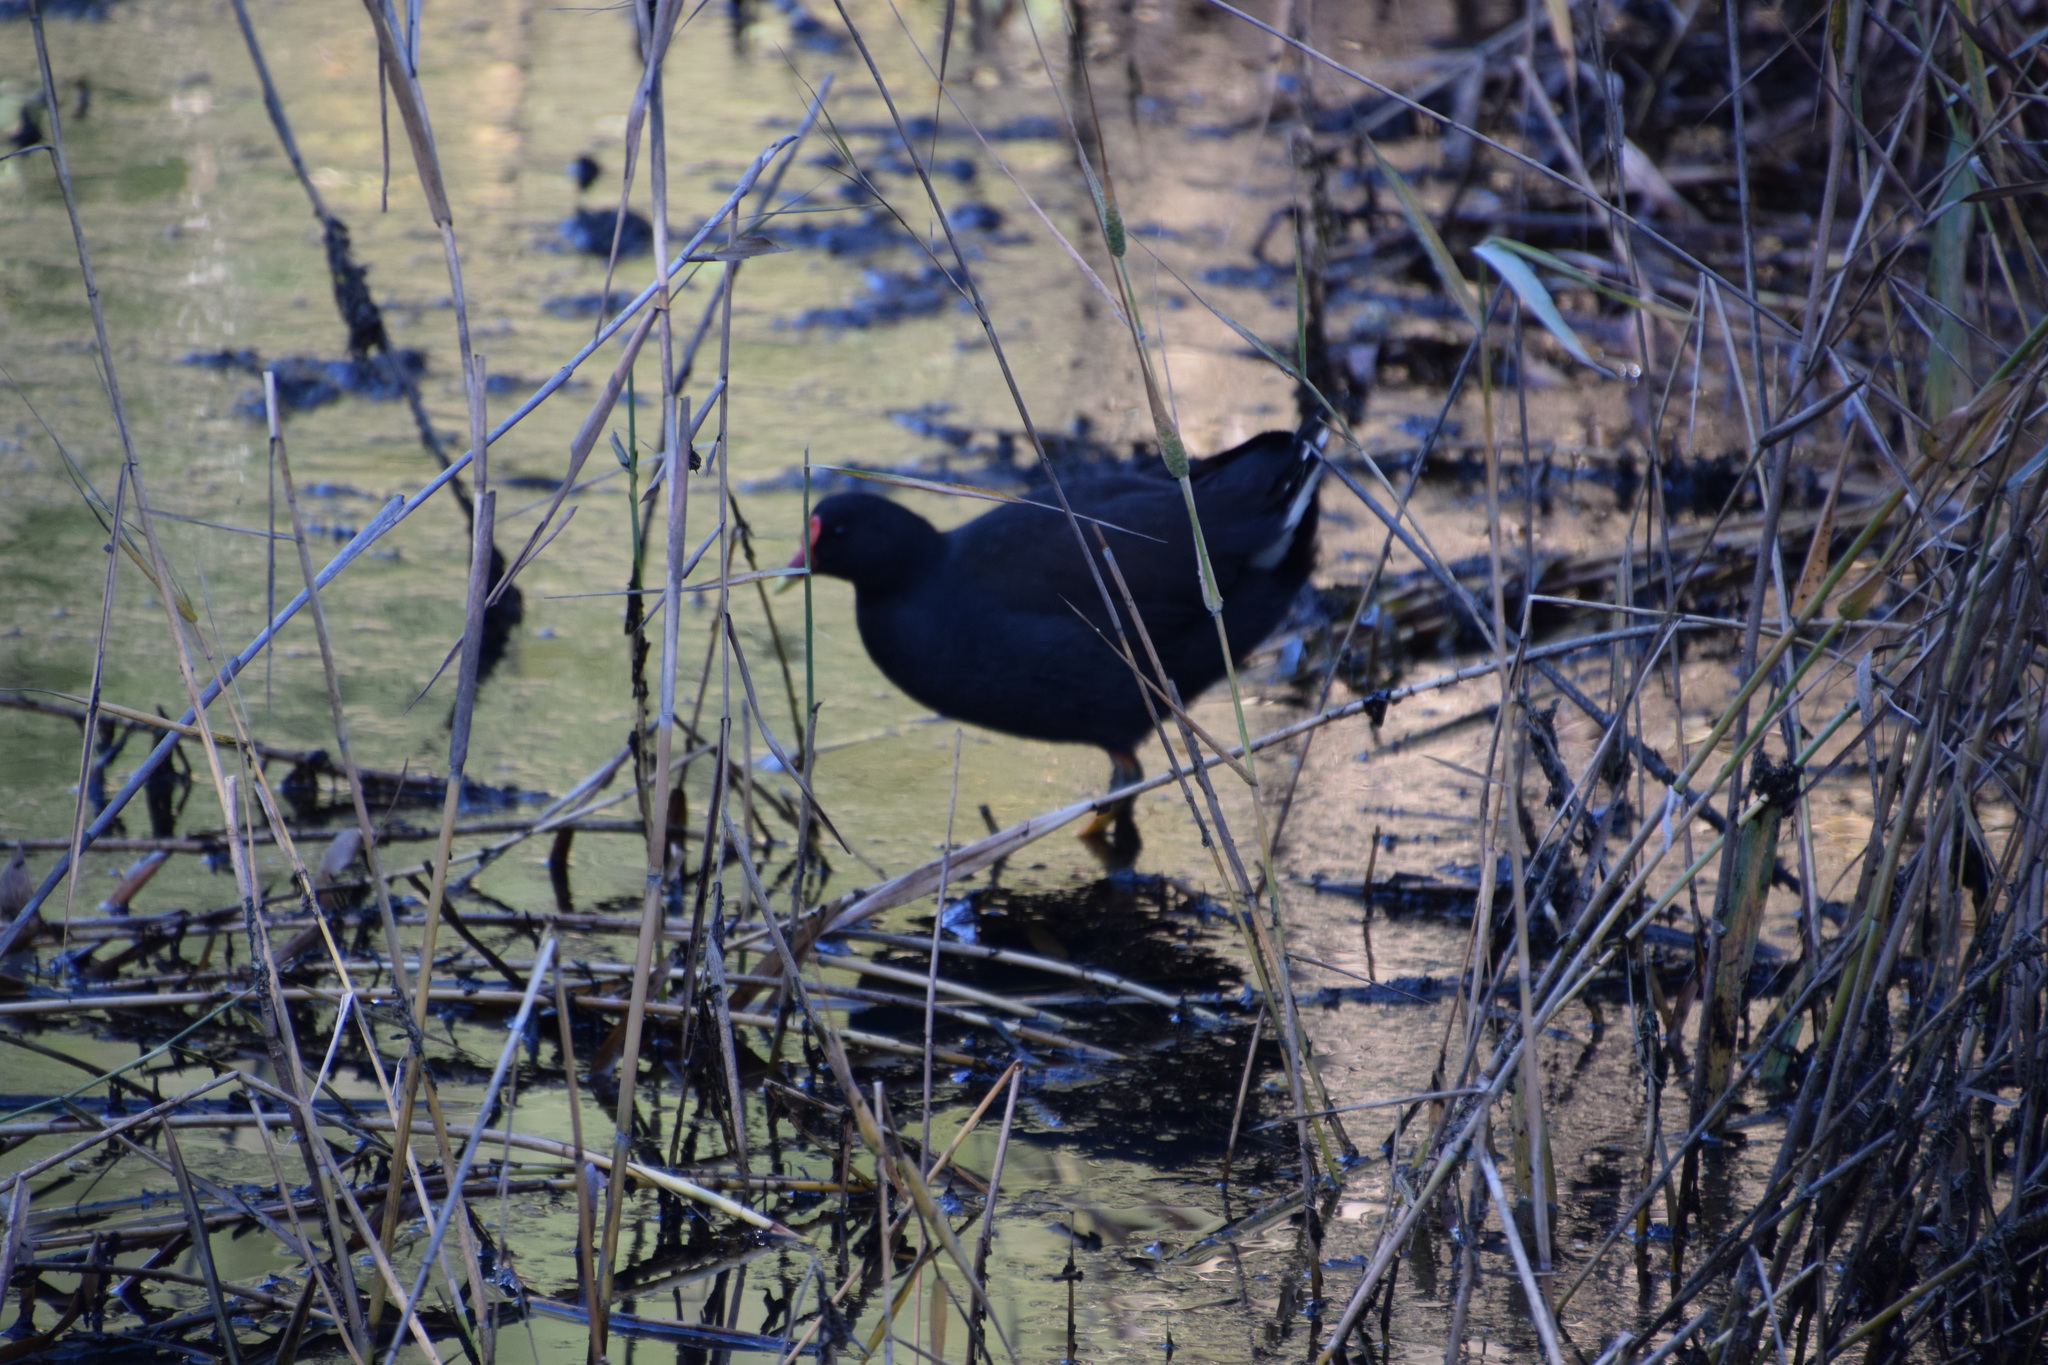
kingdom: Animalia
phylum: Chordata
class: Aves
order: Gruiformes
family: Rallidae
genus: Gallinula
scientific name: Gallinula tenebrosa
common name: Dusky moorhen
